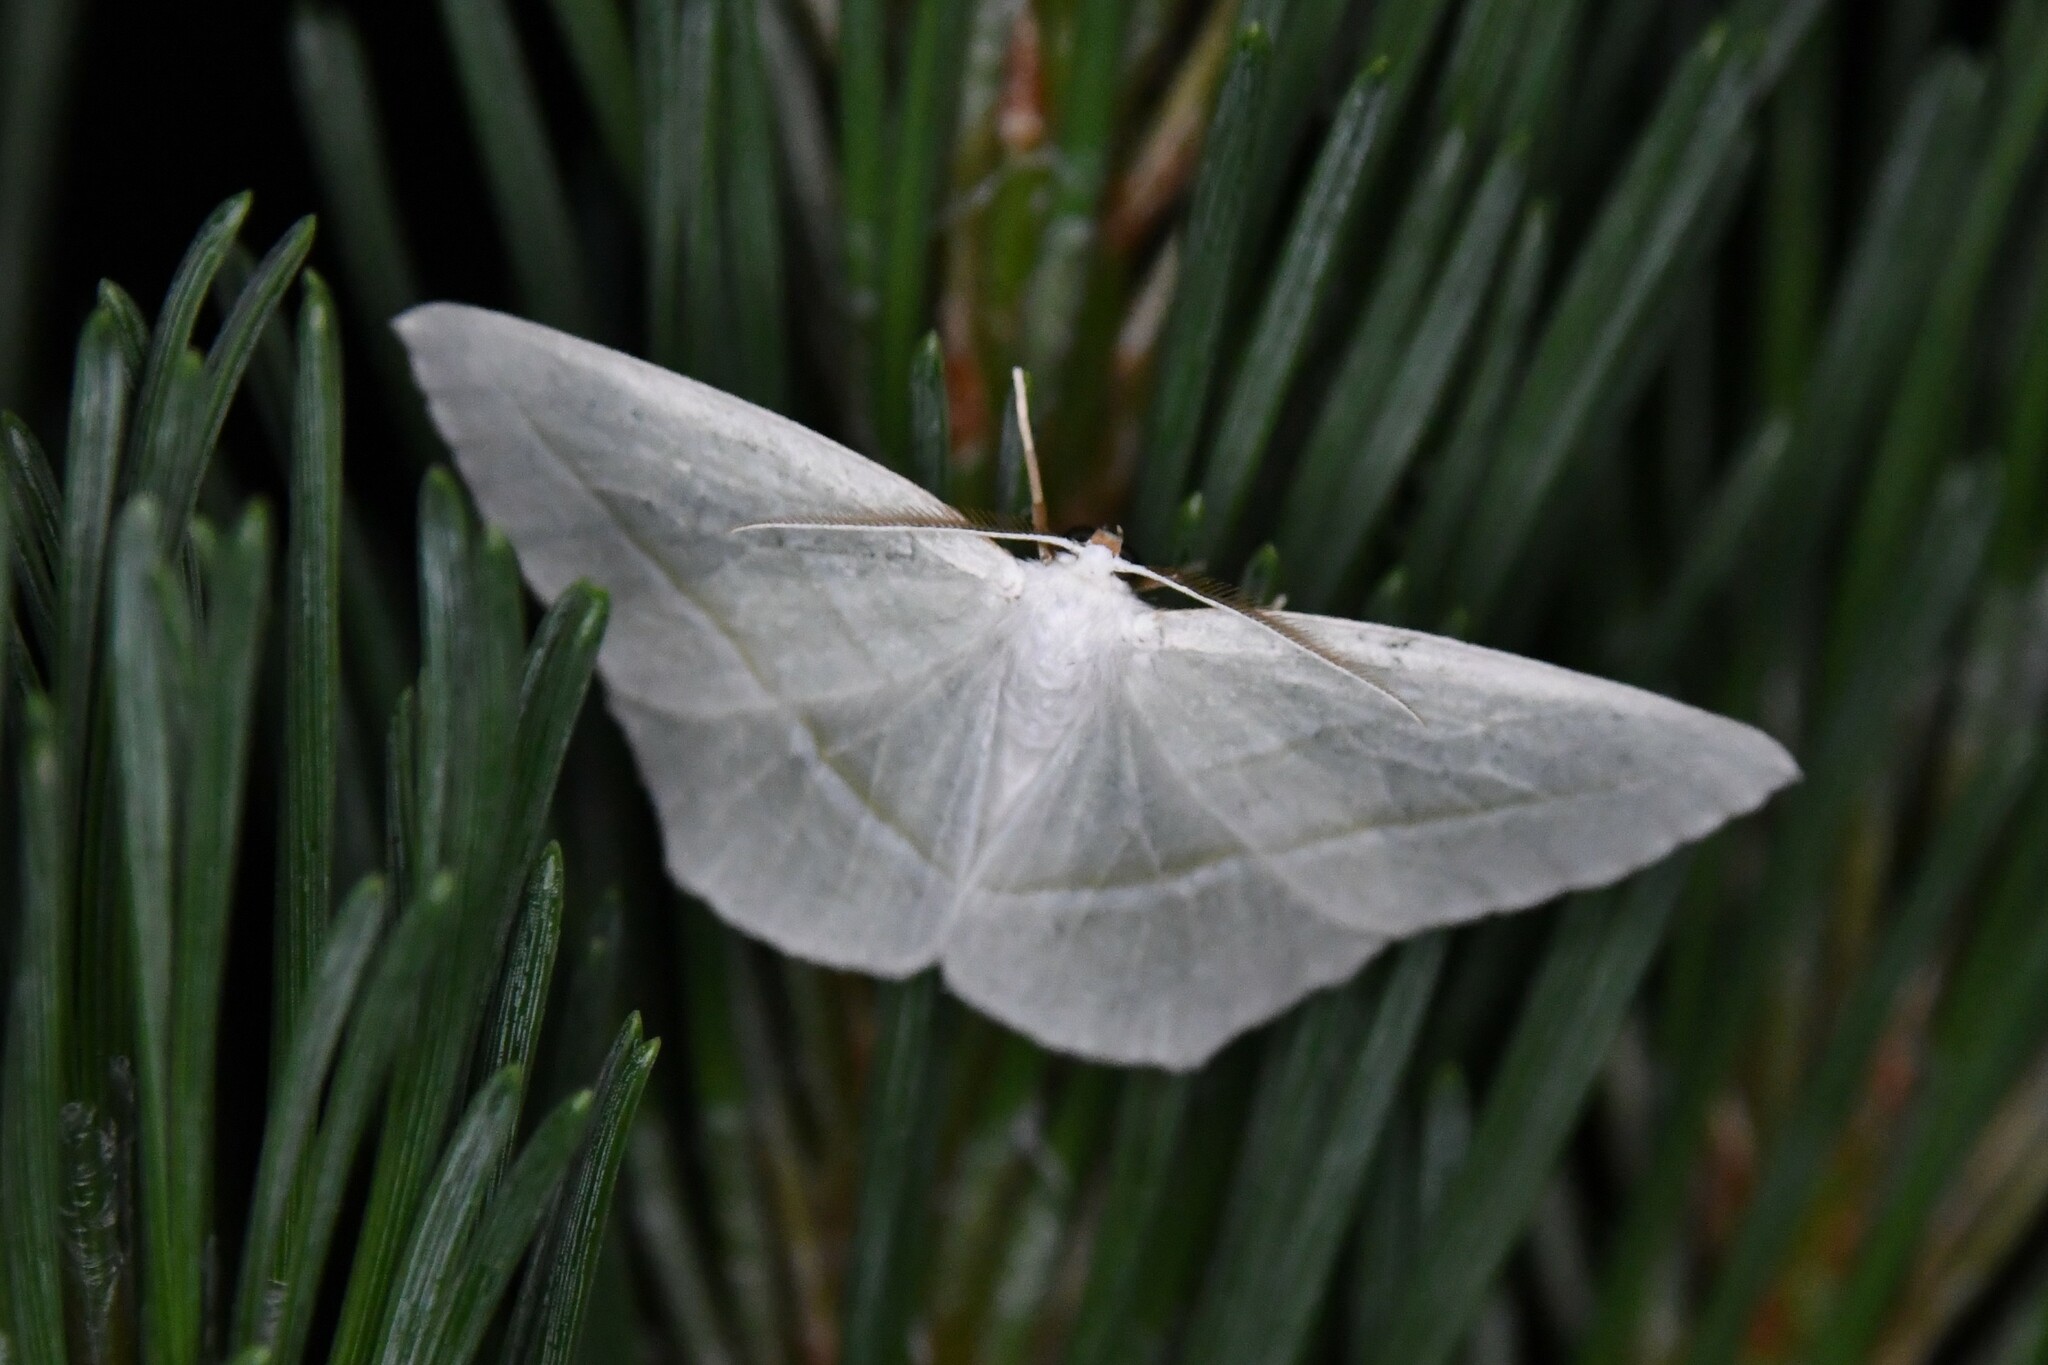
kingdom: Animalia
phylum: Arthropoda
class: Insecta
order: Lepidoptera
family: Geometridae
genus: Campaea
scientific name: Campaea perlata
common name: Fringed looper
